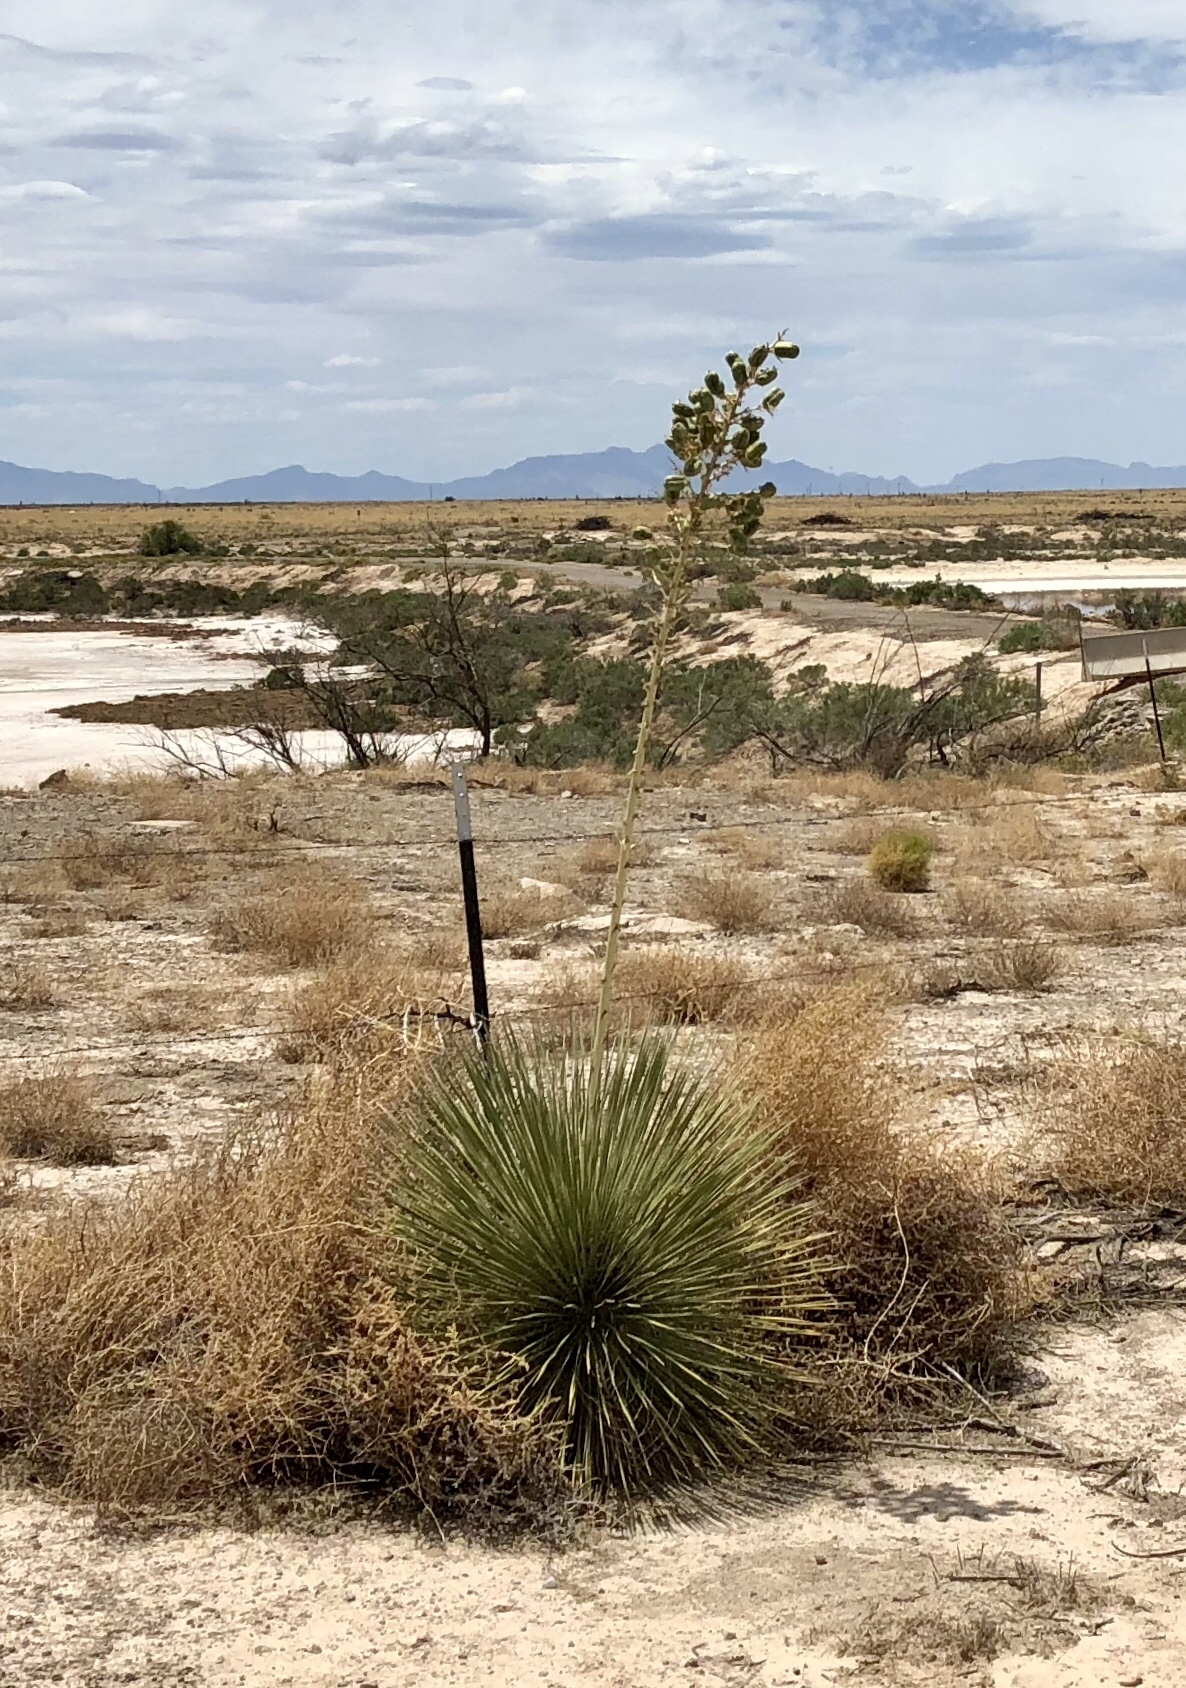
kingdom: Plantae
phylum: Tracheophyta
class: Liliopsida
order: Asparagales
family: Asparagaceae
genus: Yucca
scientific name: Yucca elata
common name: Palmella
